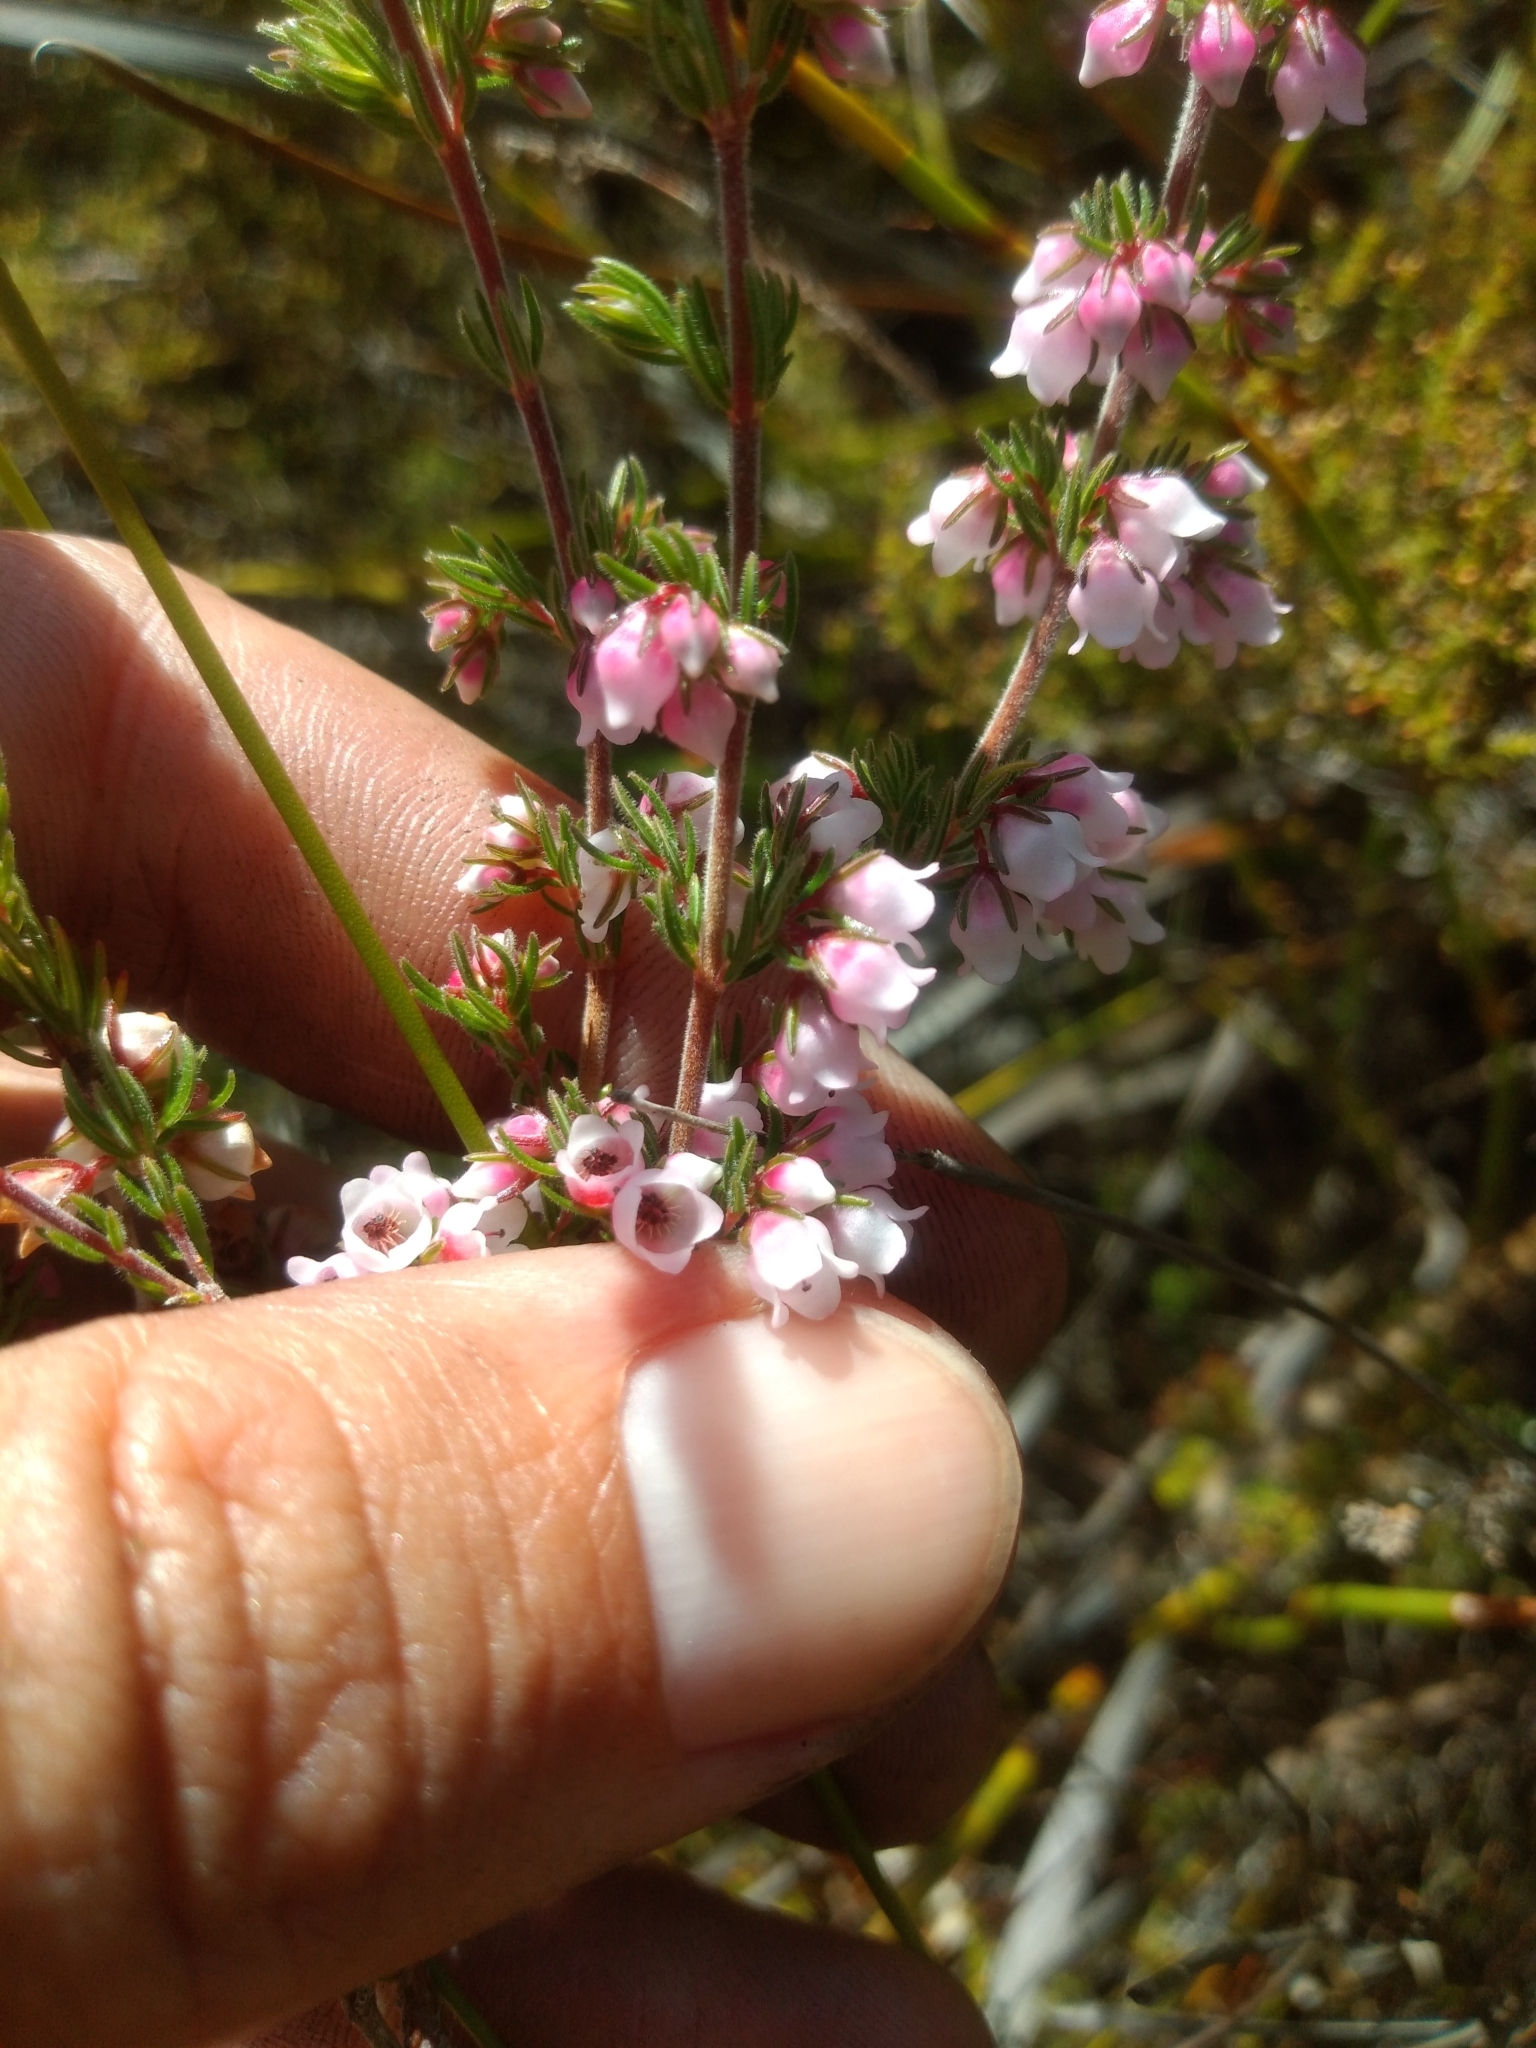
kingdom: Plantae
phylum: Tracheophyta
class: Magnoliopsida
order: Ericales
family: Ericaceae
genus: Erica
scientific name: Erica autumnalis
